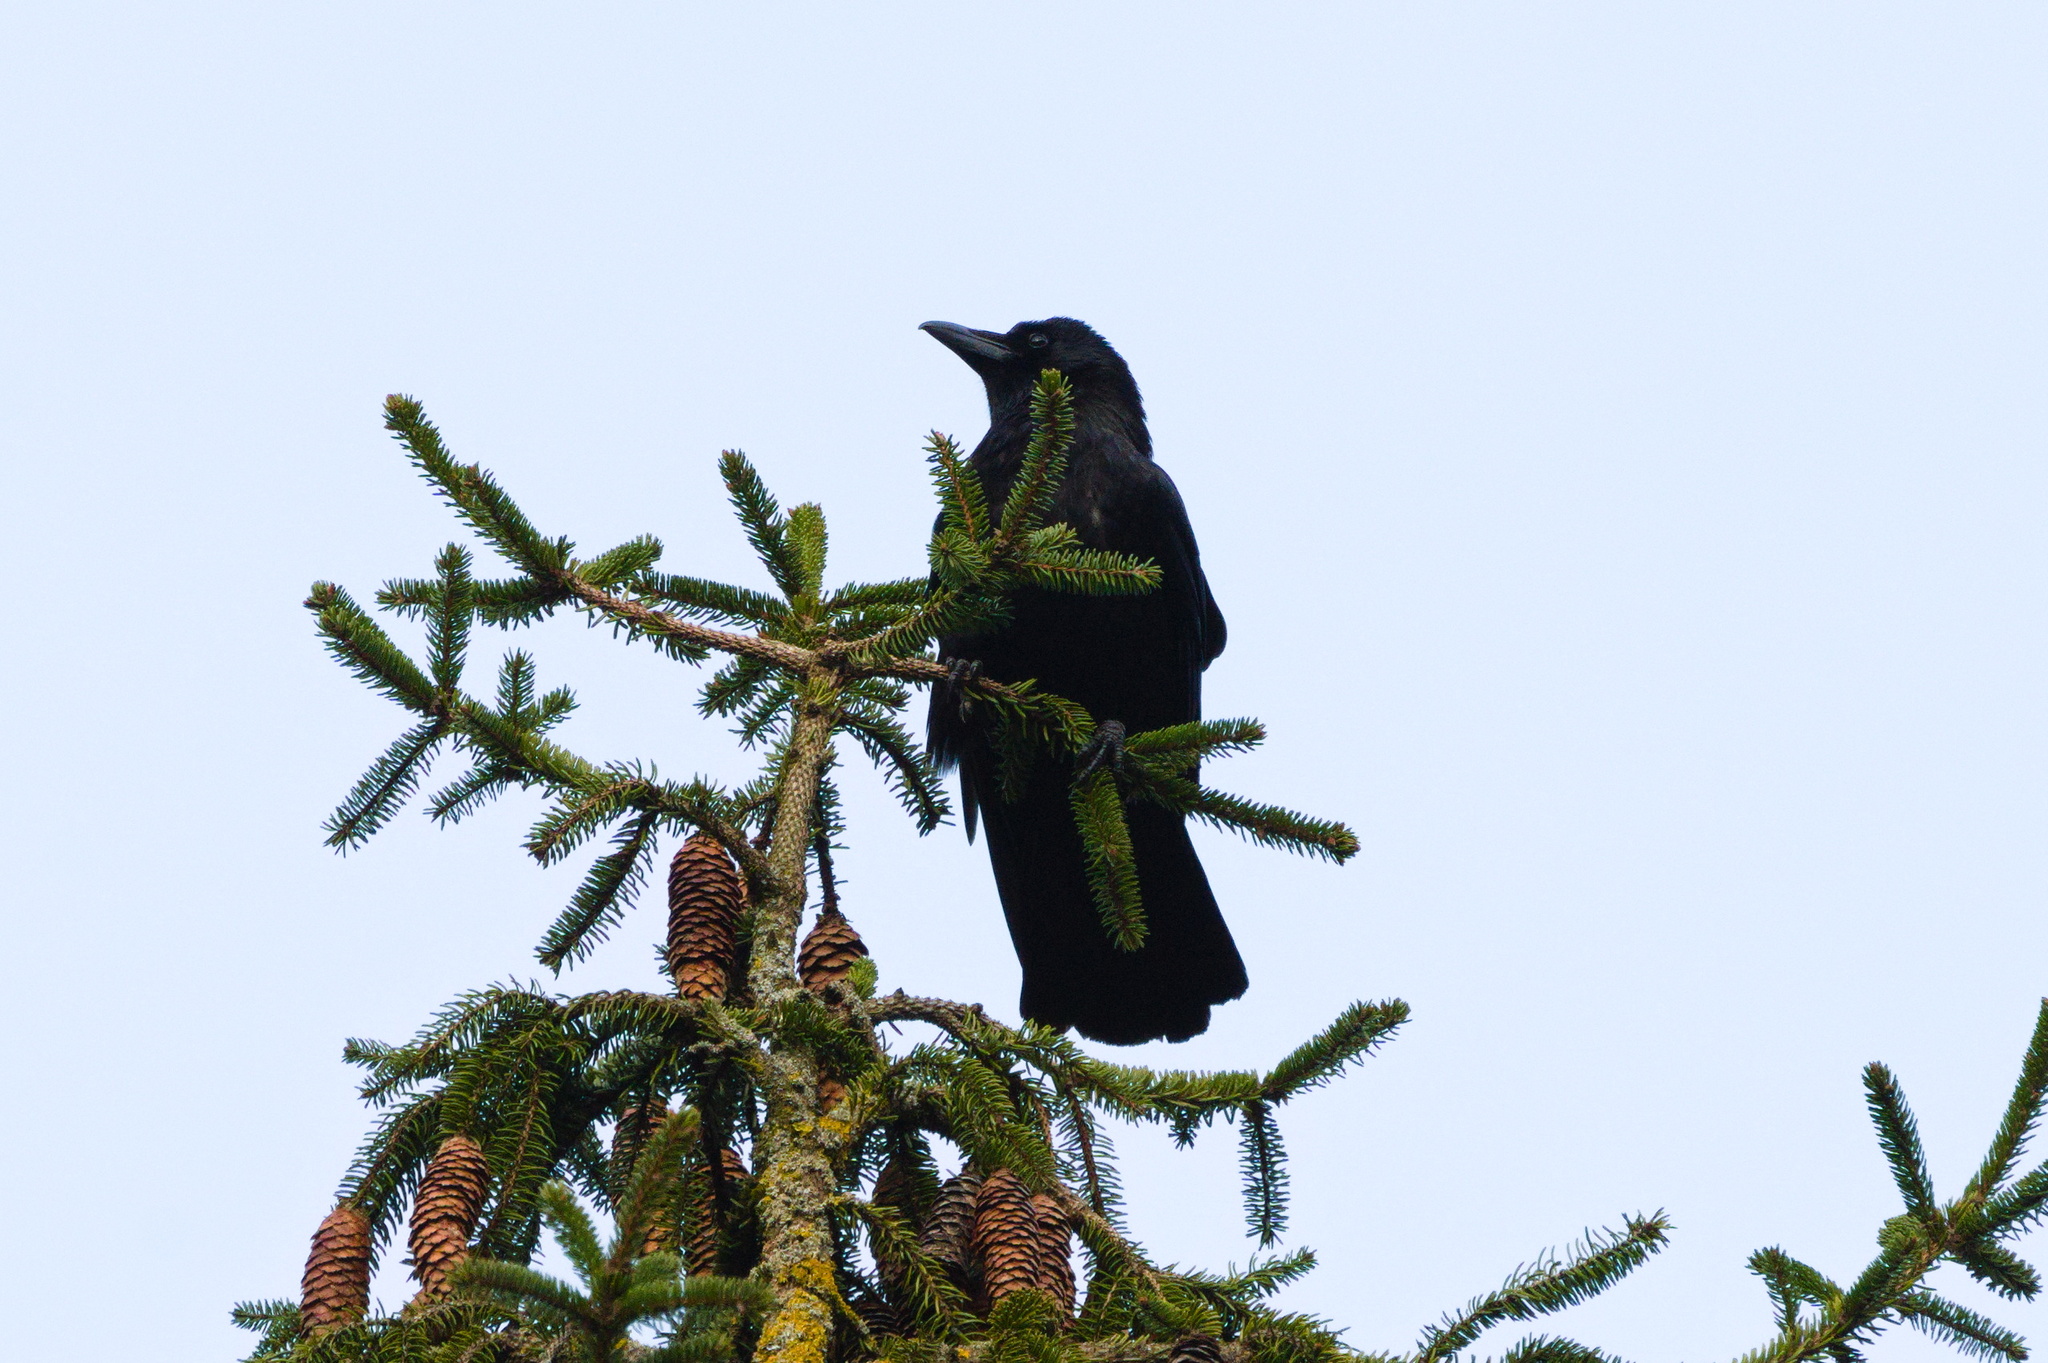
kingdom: Animalia
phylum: Chordata
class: Aves
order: Passeriformes
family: Corvidae
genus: Corvus
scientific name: Corvus corone
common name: Carrion crow
